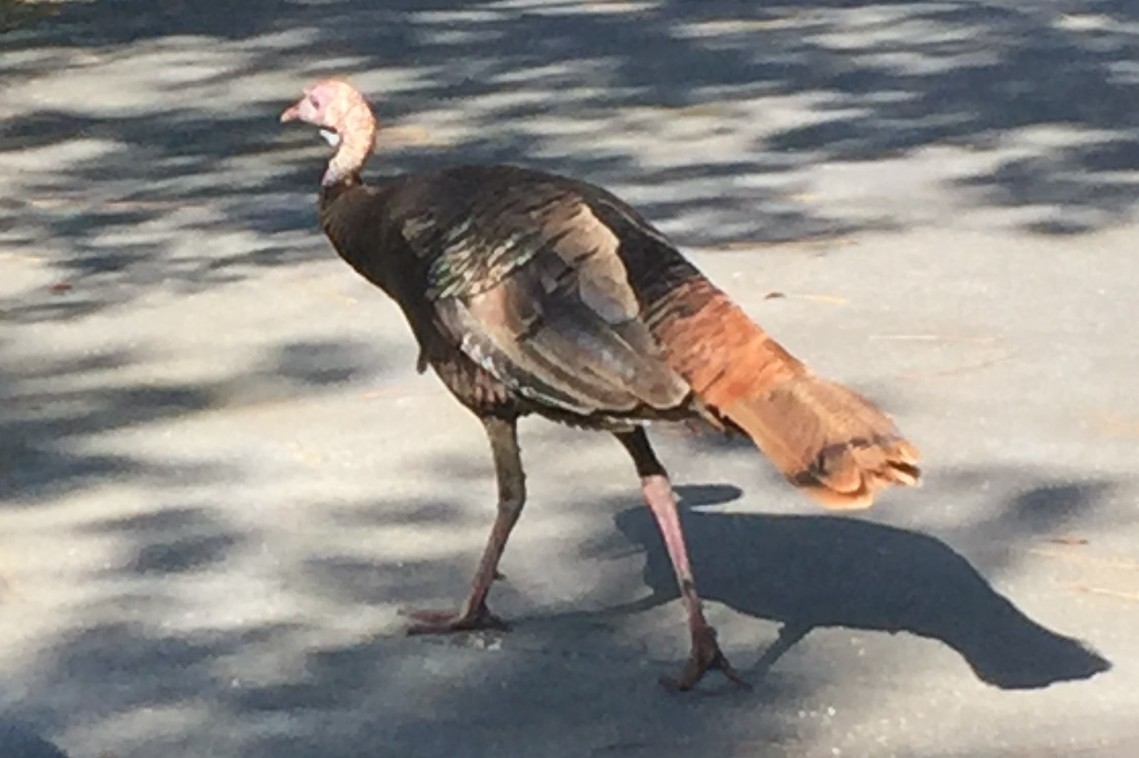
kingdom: Animalia
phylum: Chordata
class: Aves
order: Galliformes
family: Phasianidae
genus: Meleagris
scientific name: Meleagris gallopavo
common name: Wild turkey
